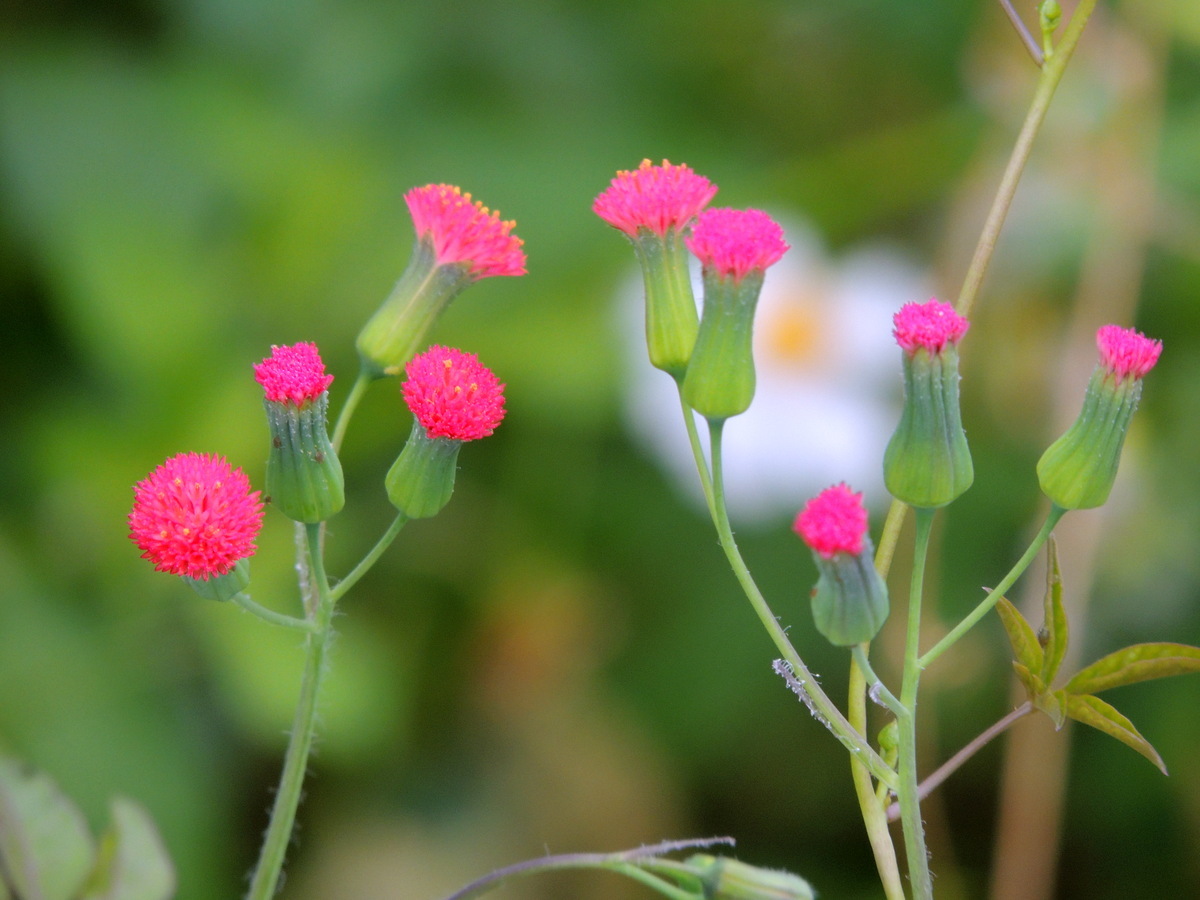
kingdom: Plantae
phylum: Tracheophyta
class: Magnoliopsida
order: Asterales
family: Asteraceae
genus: Emilia
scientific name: Emilia fosbergii
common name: Florida tasselflower
